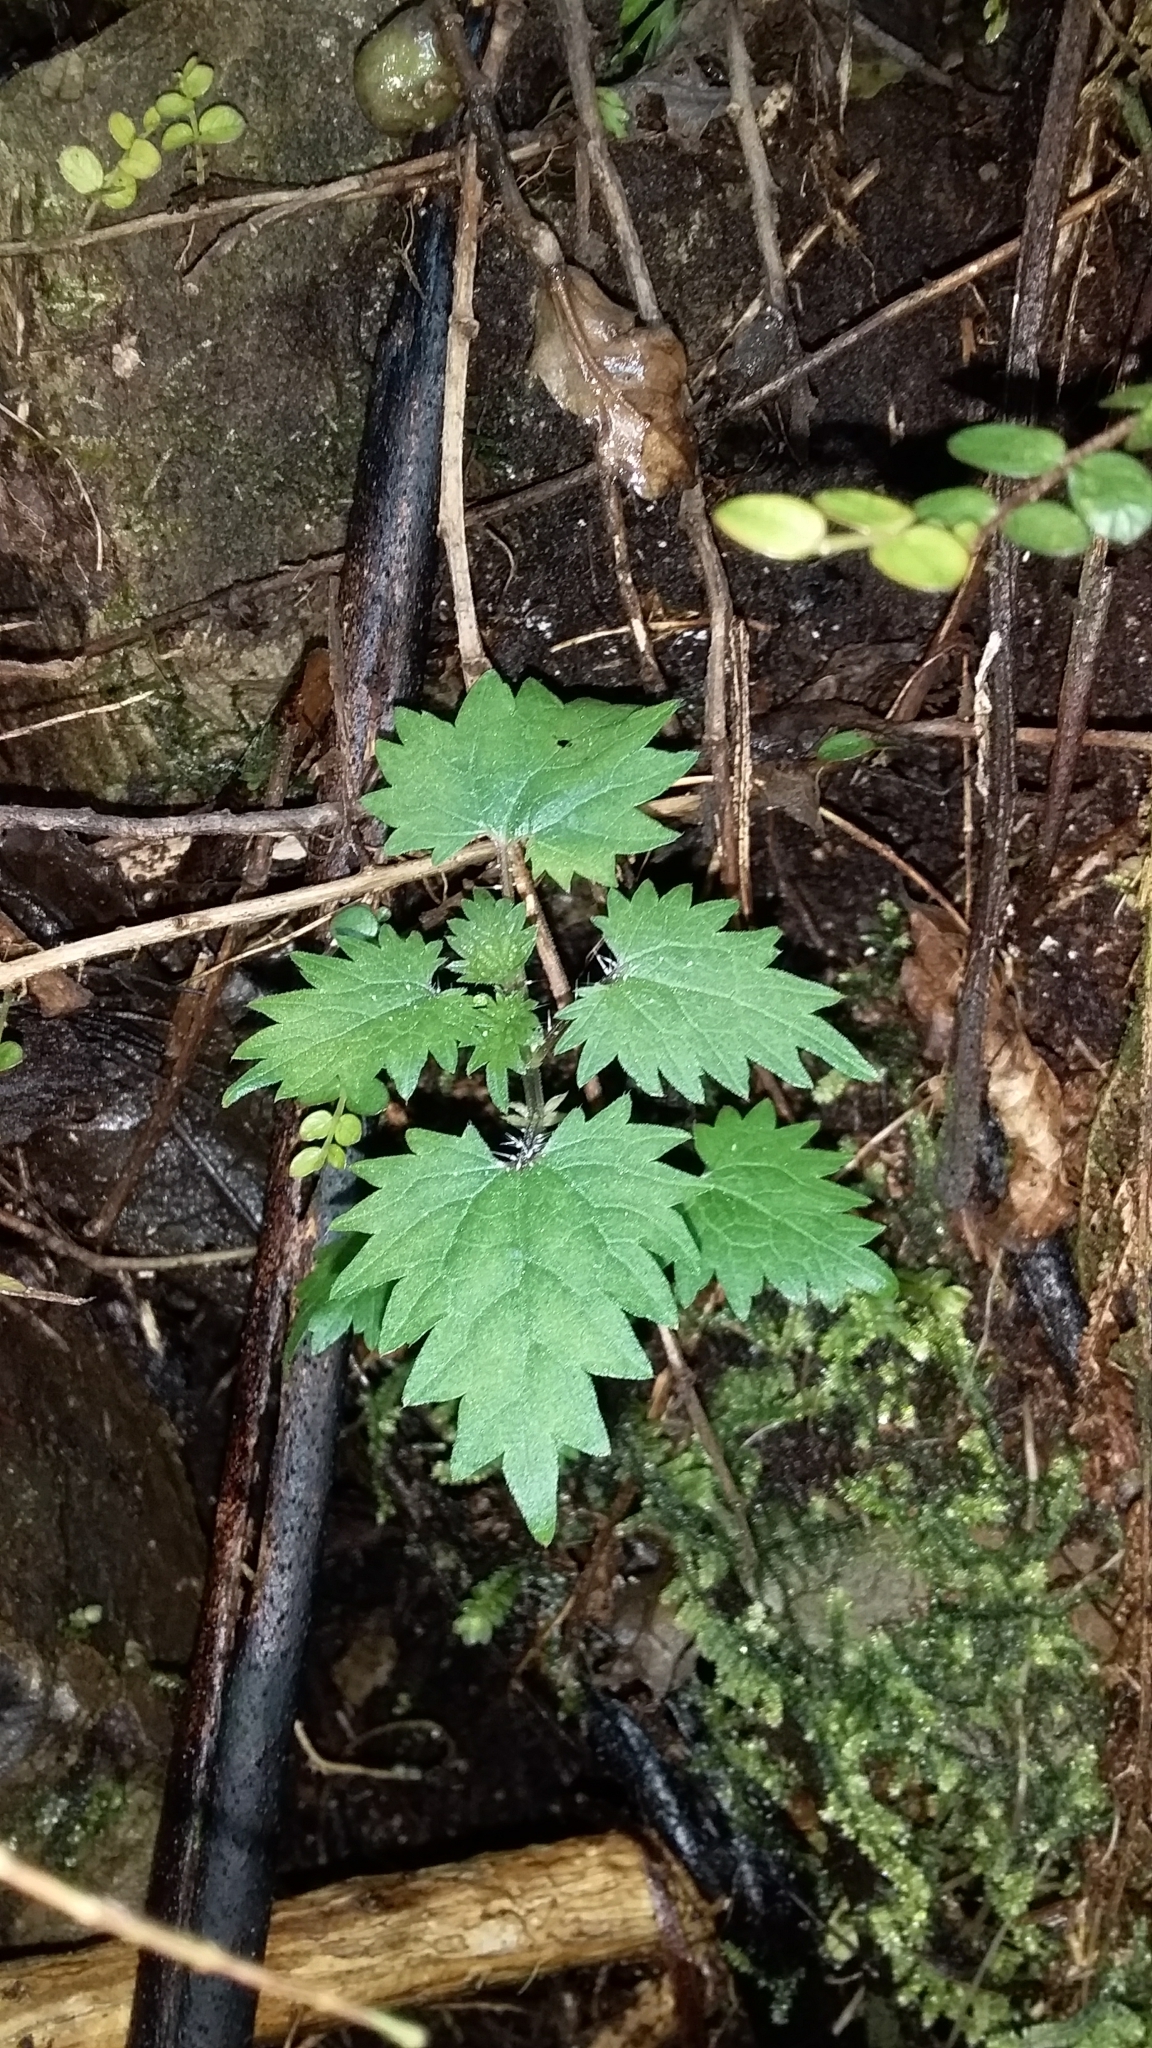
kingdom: Plantae
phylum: Tracheophyta
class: Magnoliopsida
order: Rosales
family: Urticaceae
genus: Urtica
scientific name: Urtica sykesii
